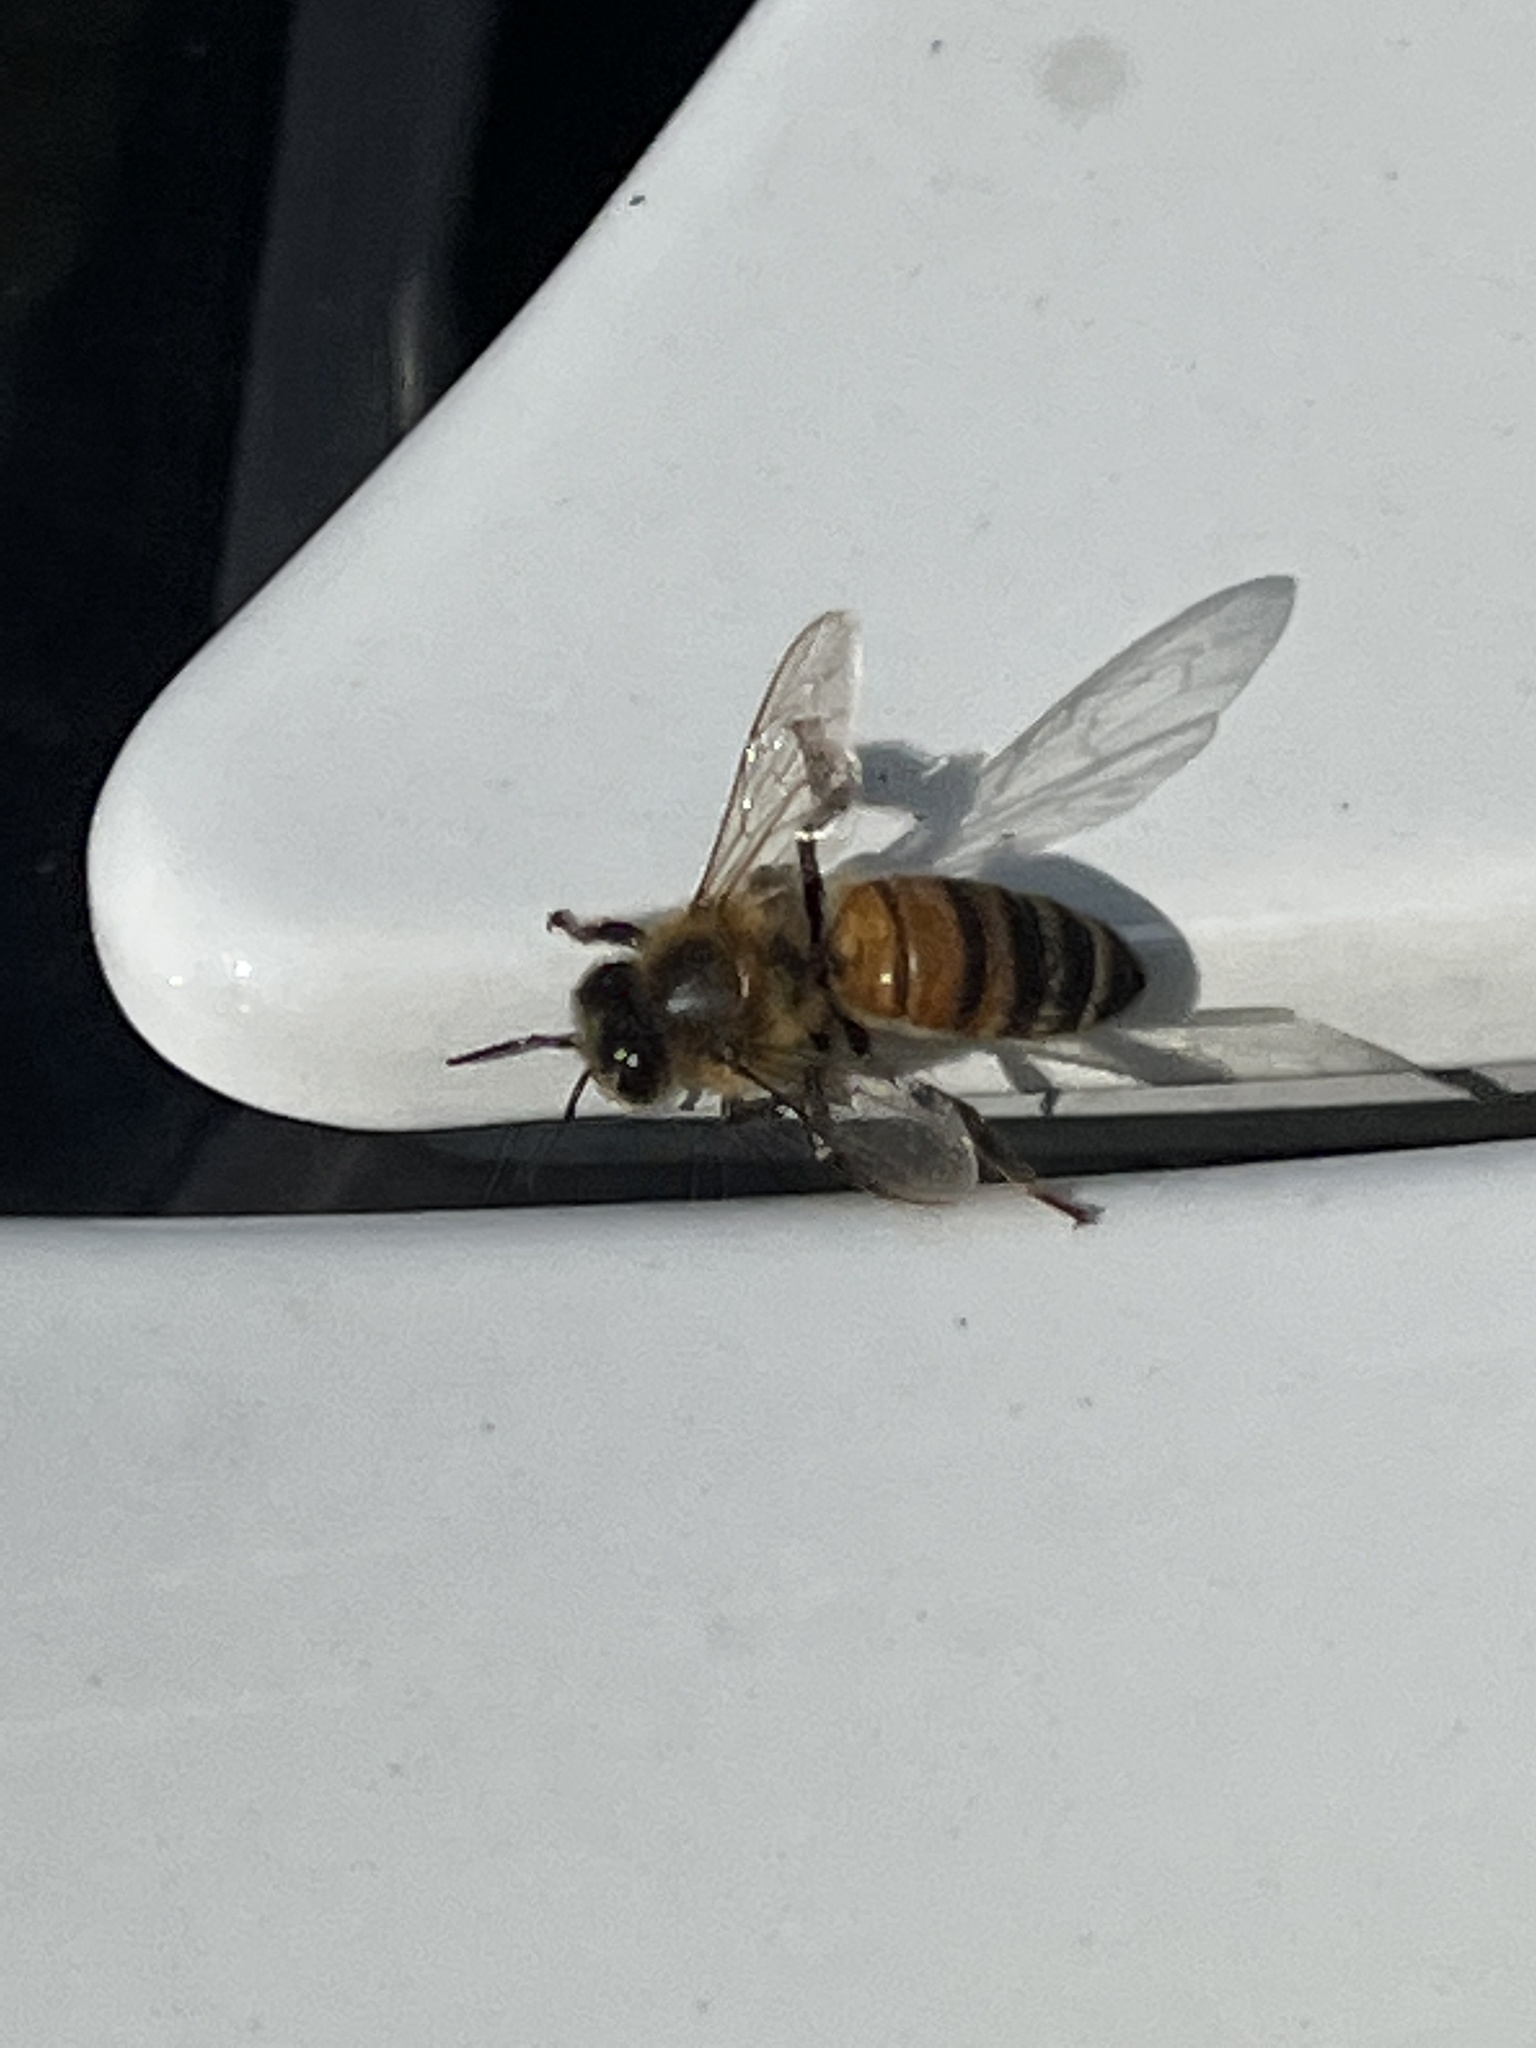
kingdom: Animalia
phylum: Arthropoda
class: Insecta
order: Hymenoptera
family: Apidae
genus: Apis
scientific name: Apis mellifera
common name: Honey bee
